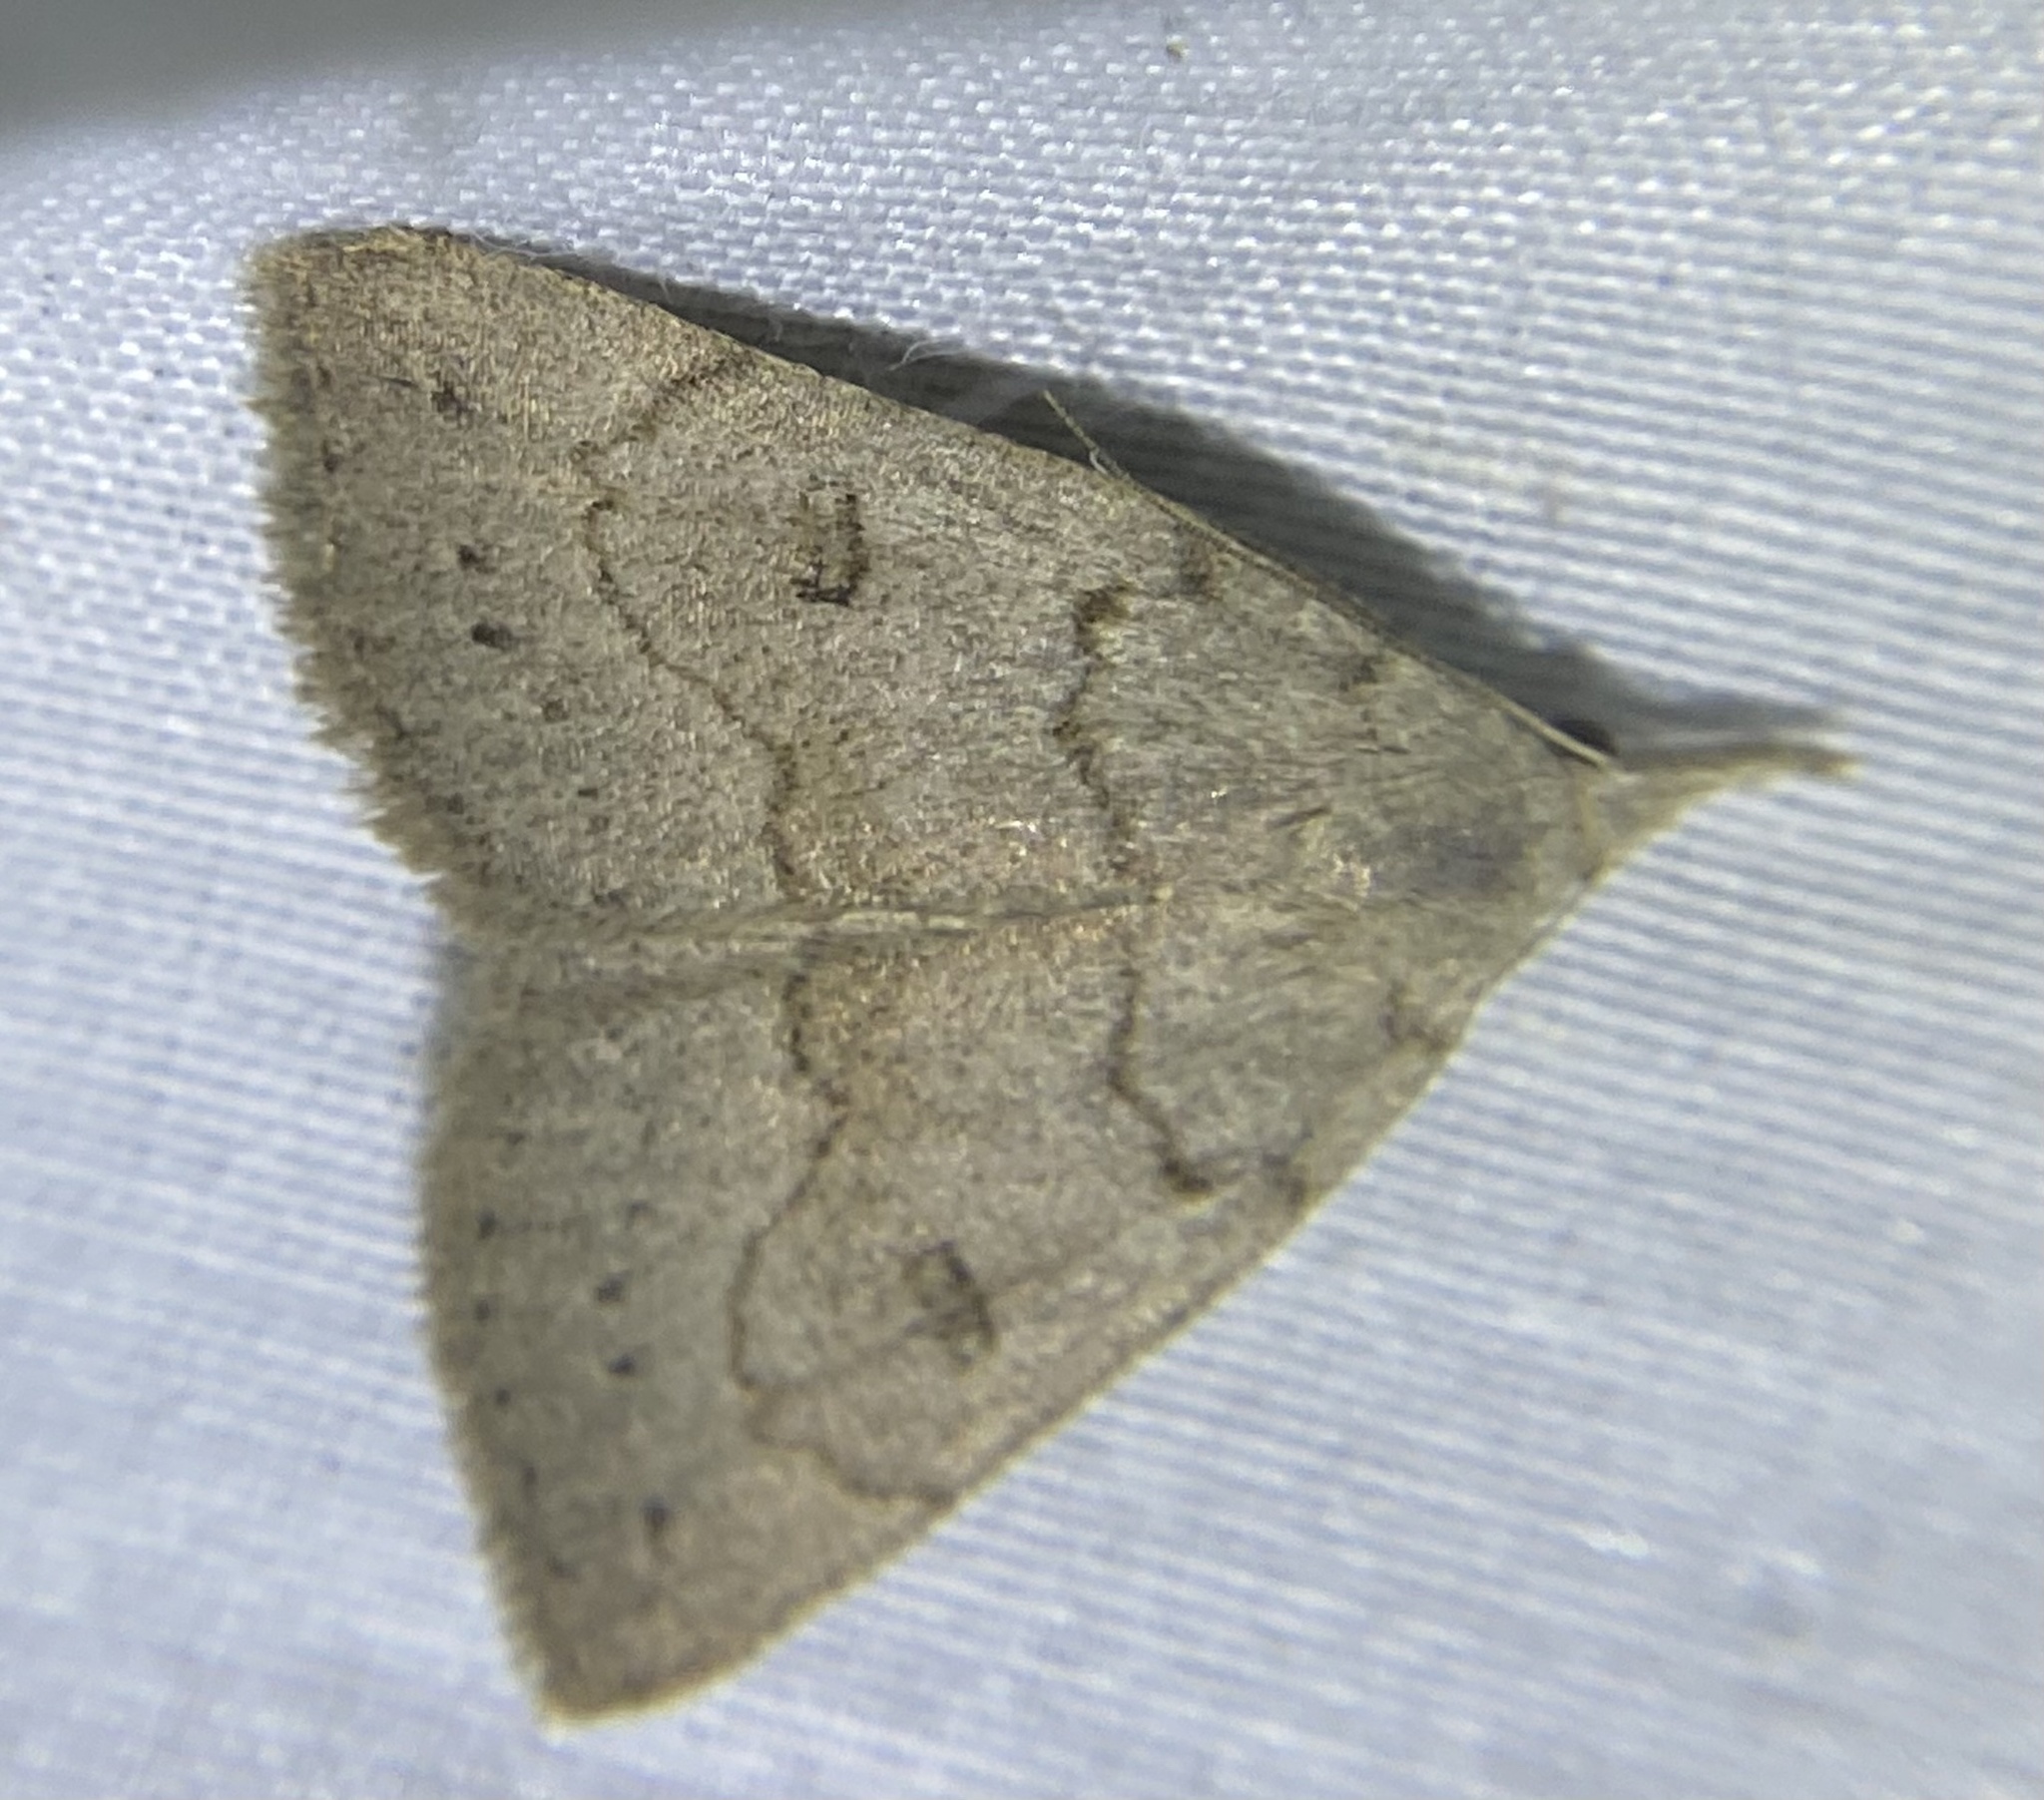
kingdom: Animalia
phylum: Arthropoda
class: Insecta
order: Lepidoptera
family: Erebidae
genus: Macrochilo
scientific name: Macrochilo morbidalis
